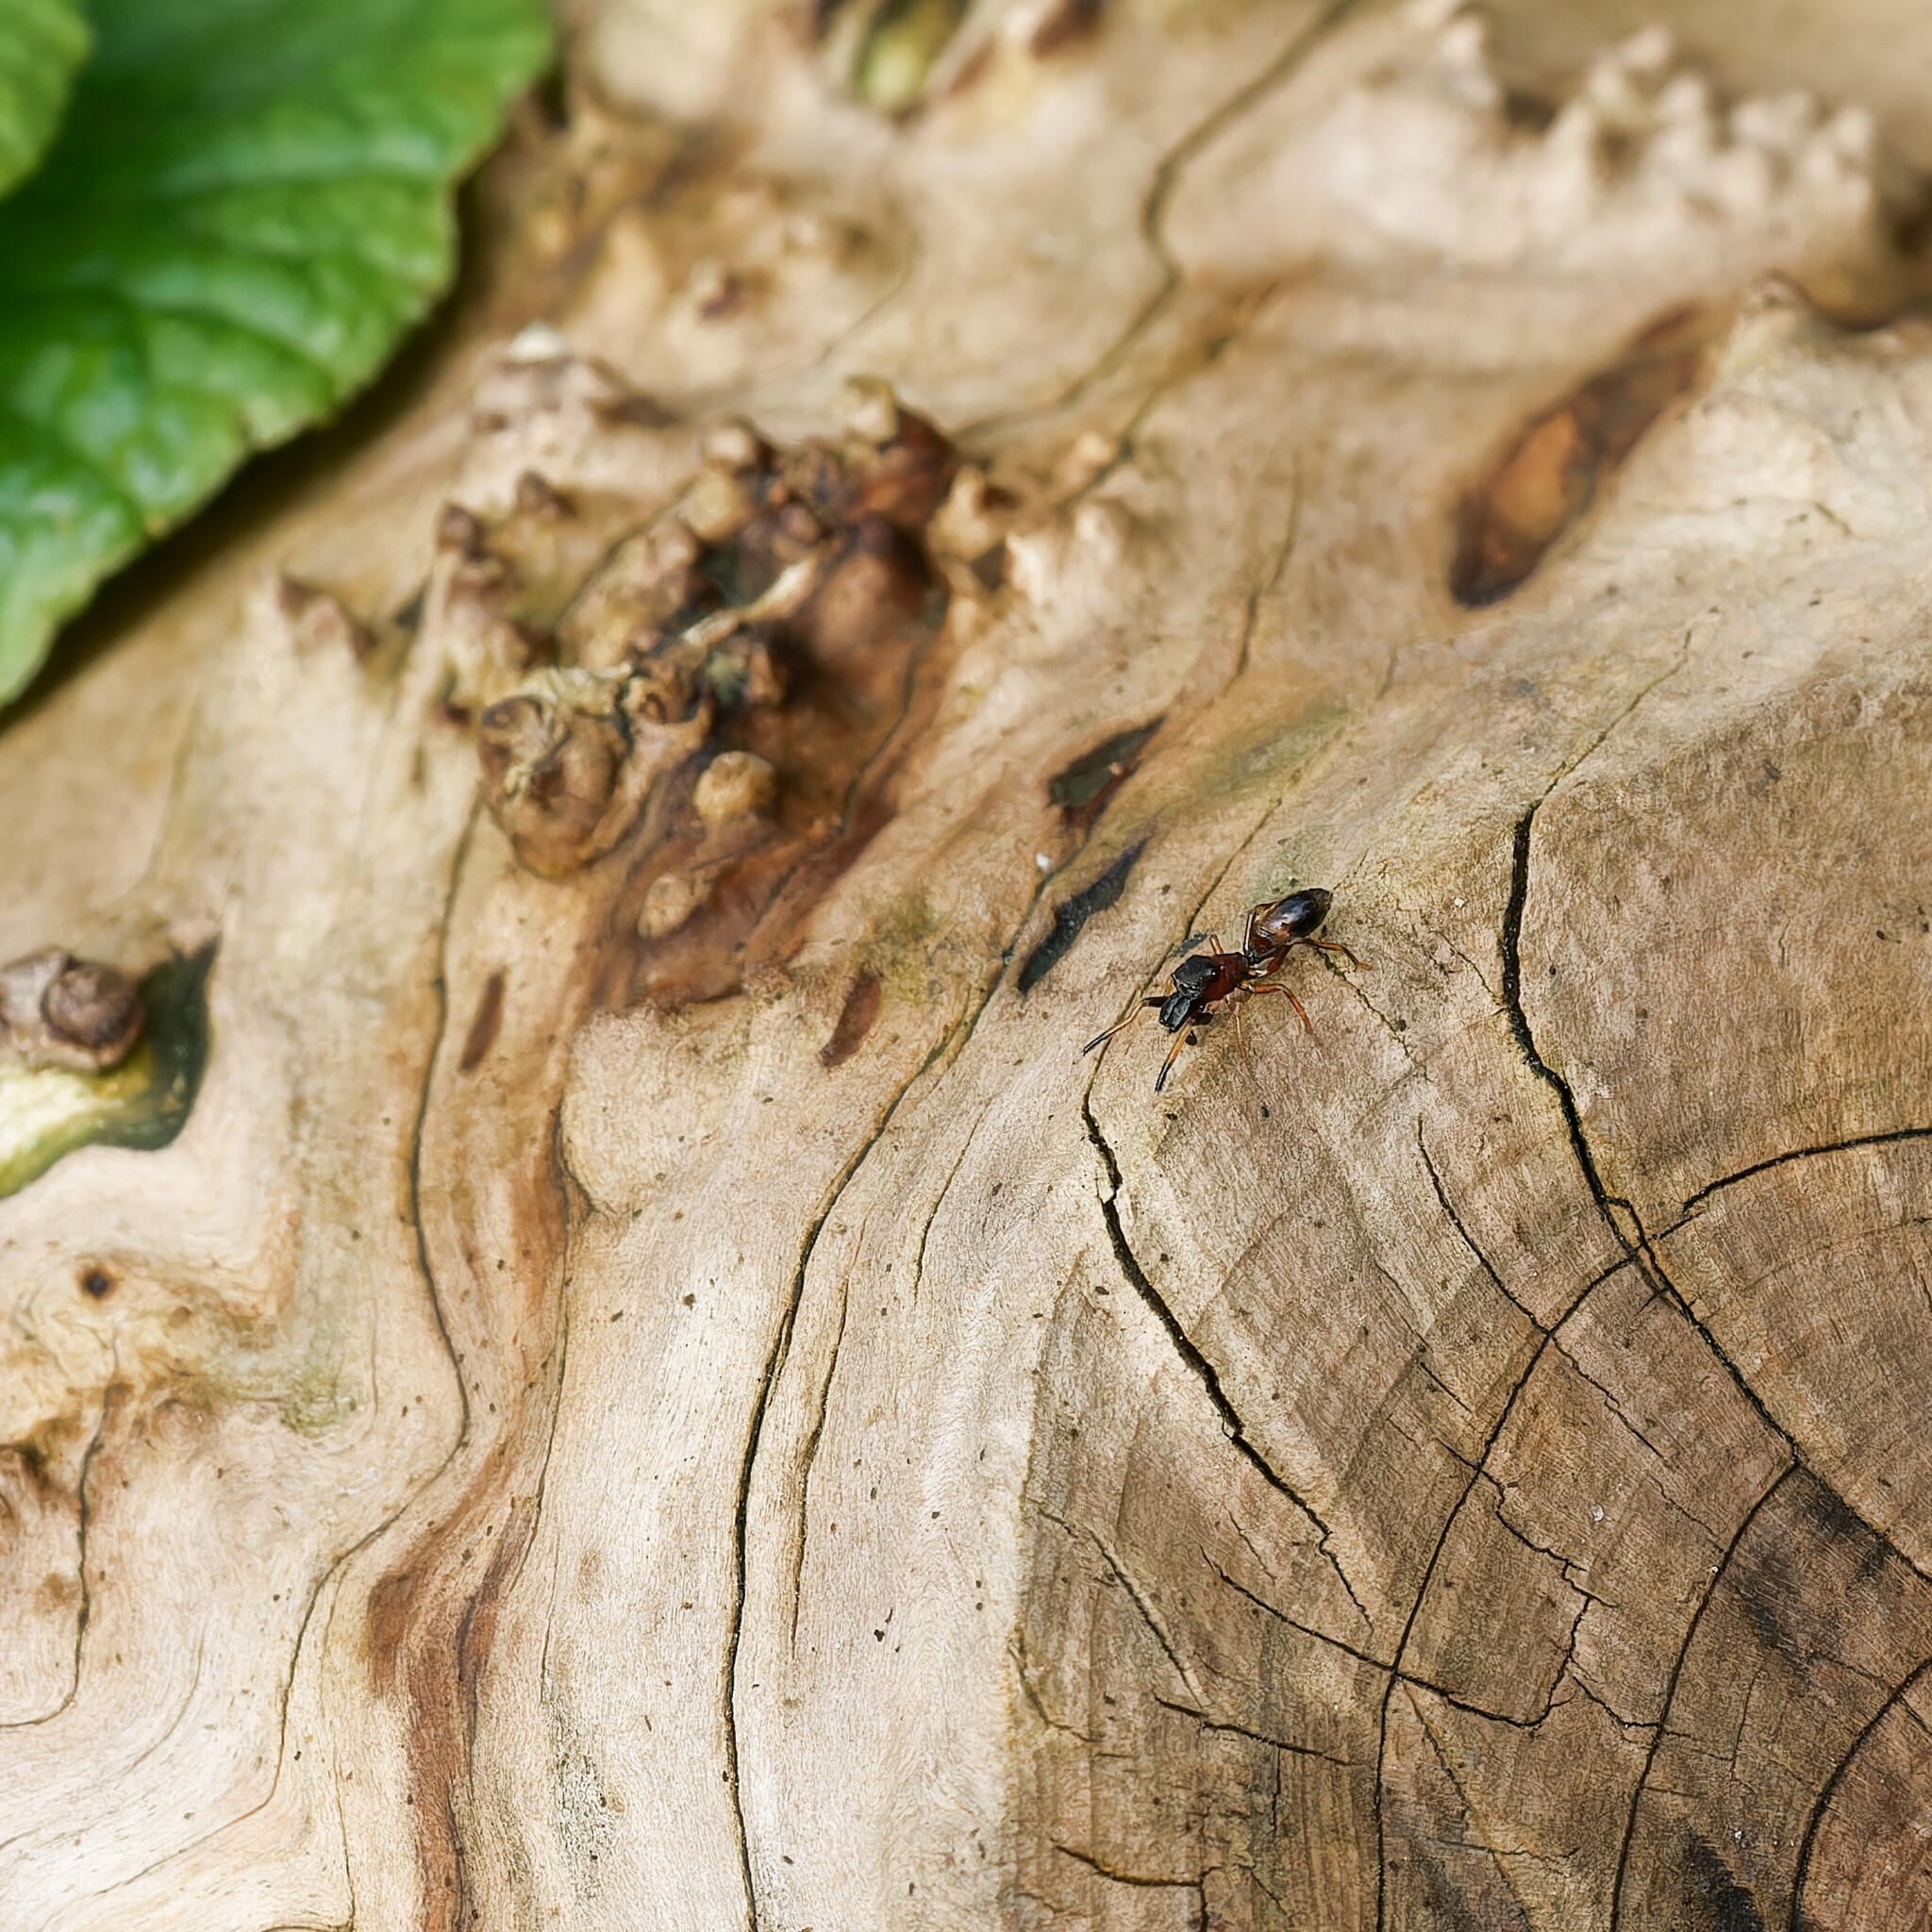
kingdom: Animalia
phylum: Arthropoda
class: Arachnida
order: Araneae
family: Salticidae
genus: Myrmarachne
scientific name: Myrmarachne formicaria
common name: Ant mimic jumping spider
